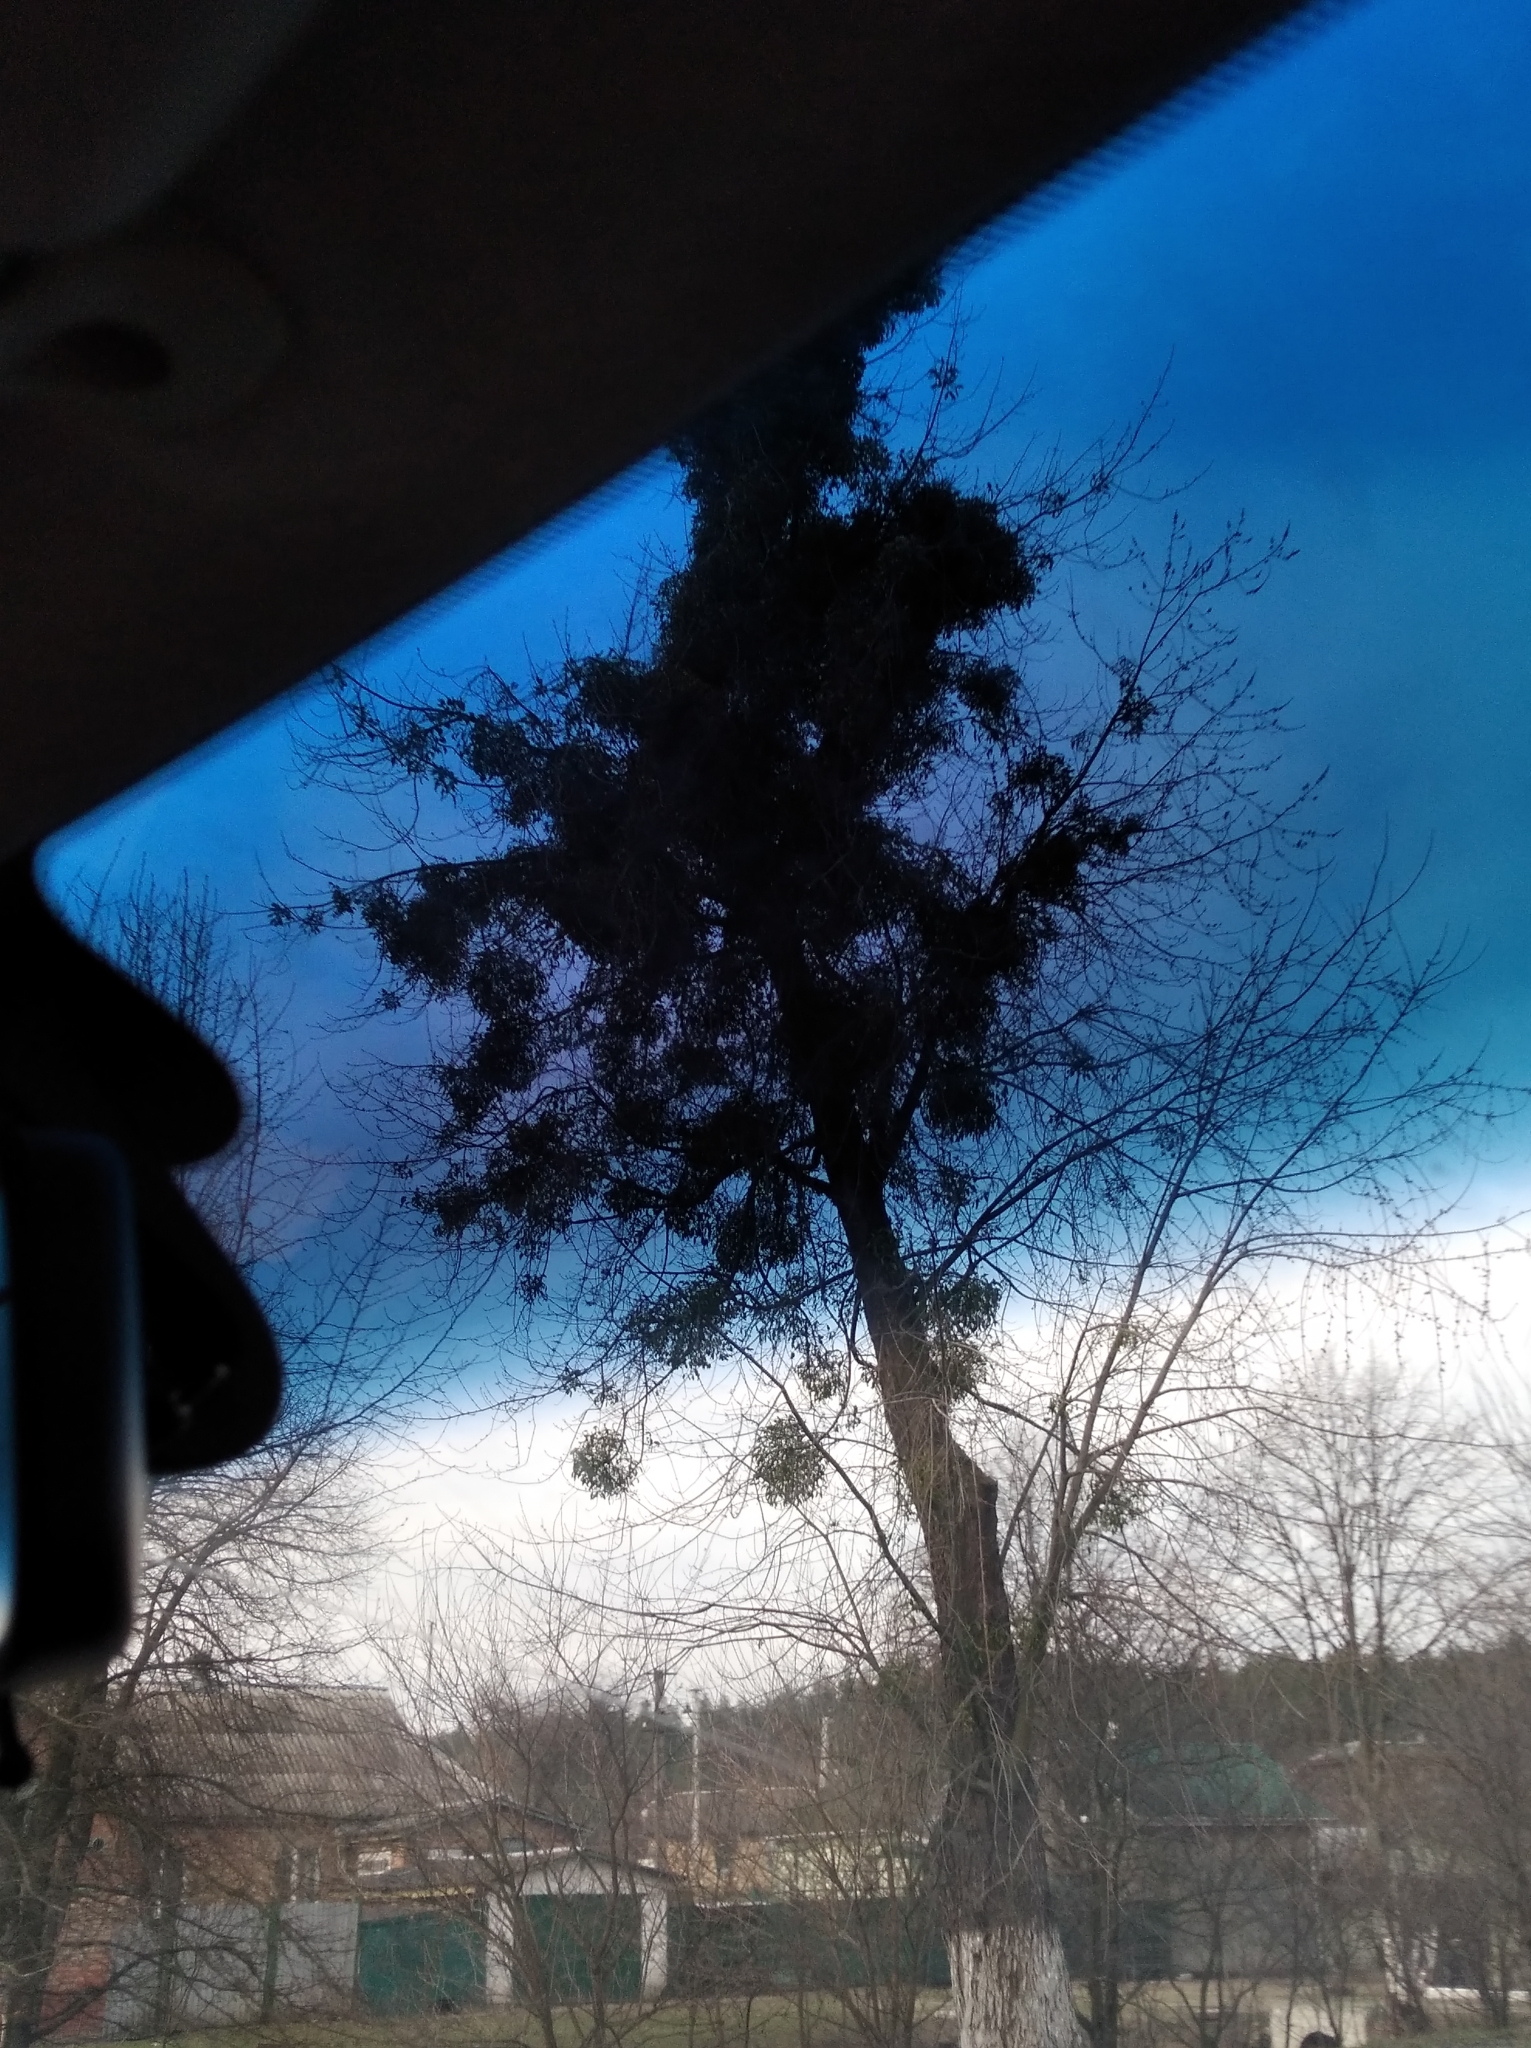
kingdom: Plantae
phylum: Tracheophyta
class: Magnoliopsida
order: Santalales
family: Viscaceae
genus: Viscum
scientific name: Viscum album
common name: Mistletoe
